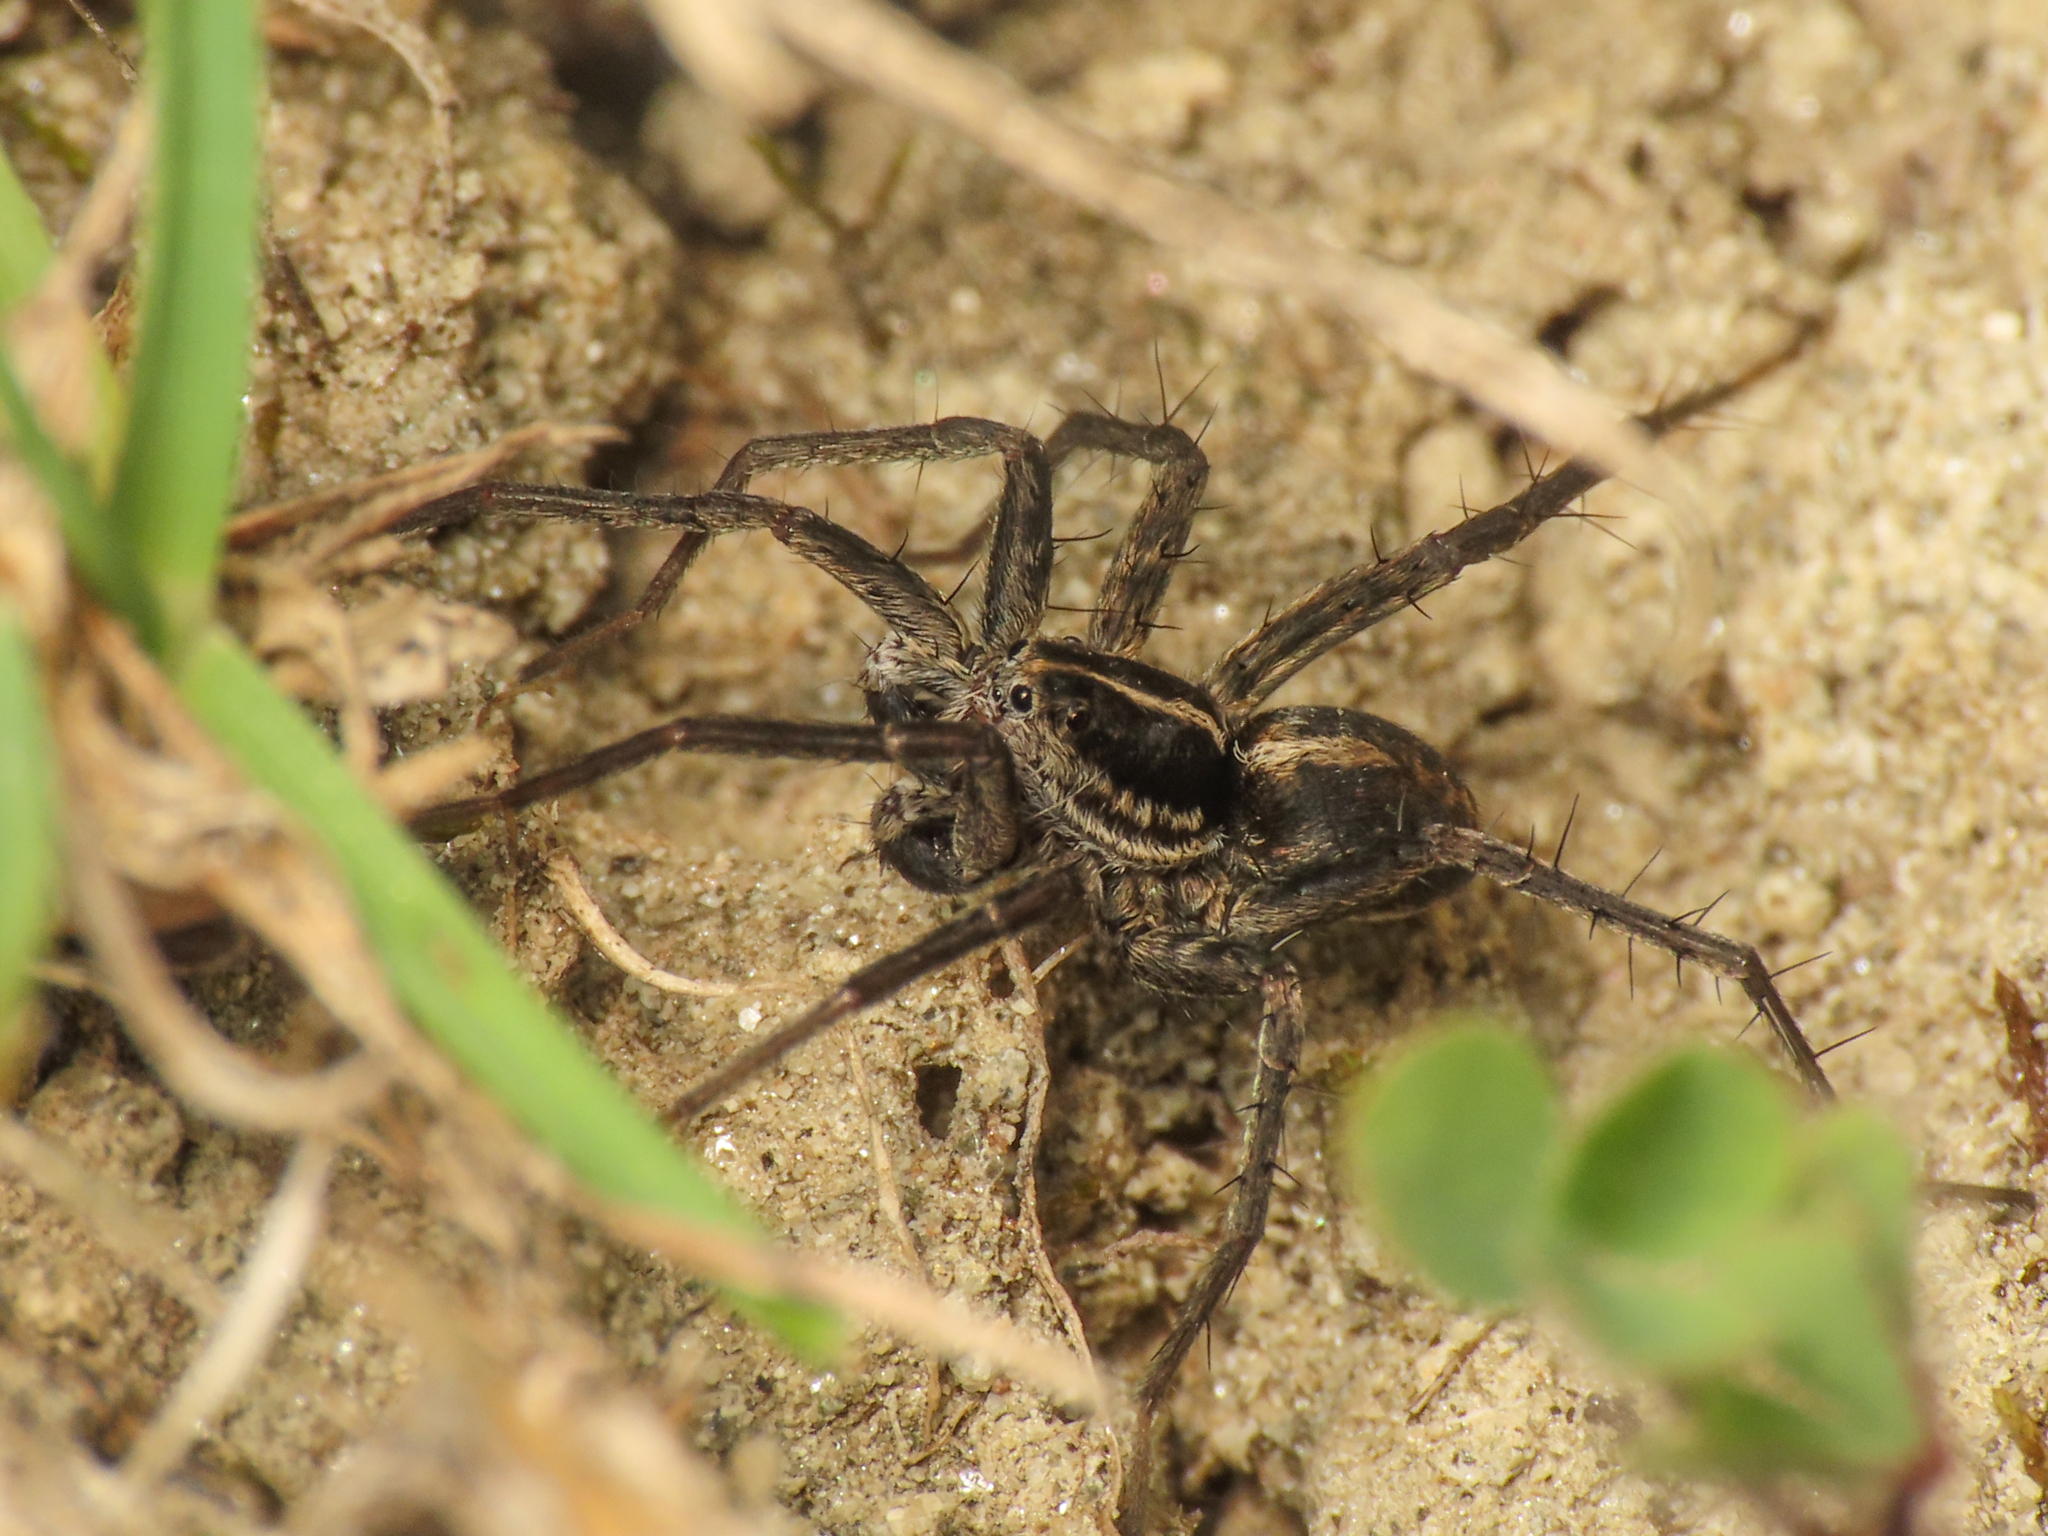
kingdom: Animalia
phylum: Arthropoda
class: Arachnida
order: Araneae
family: Lycosidae
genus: Pardosa
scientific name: Pardosa blanda
